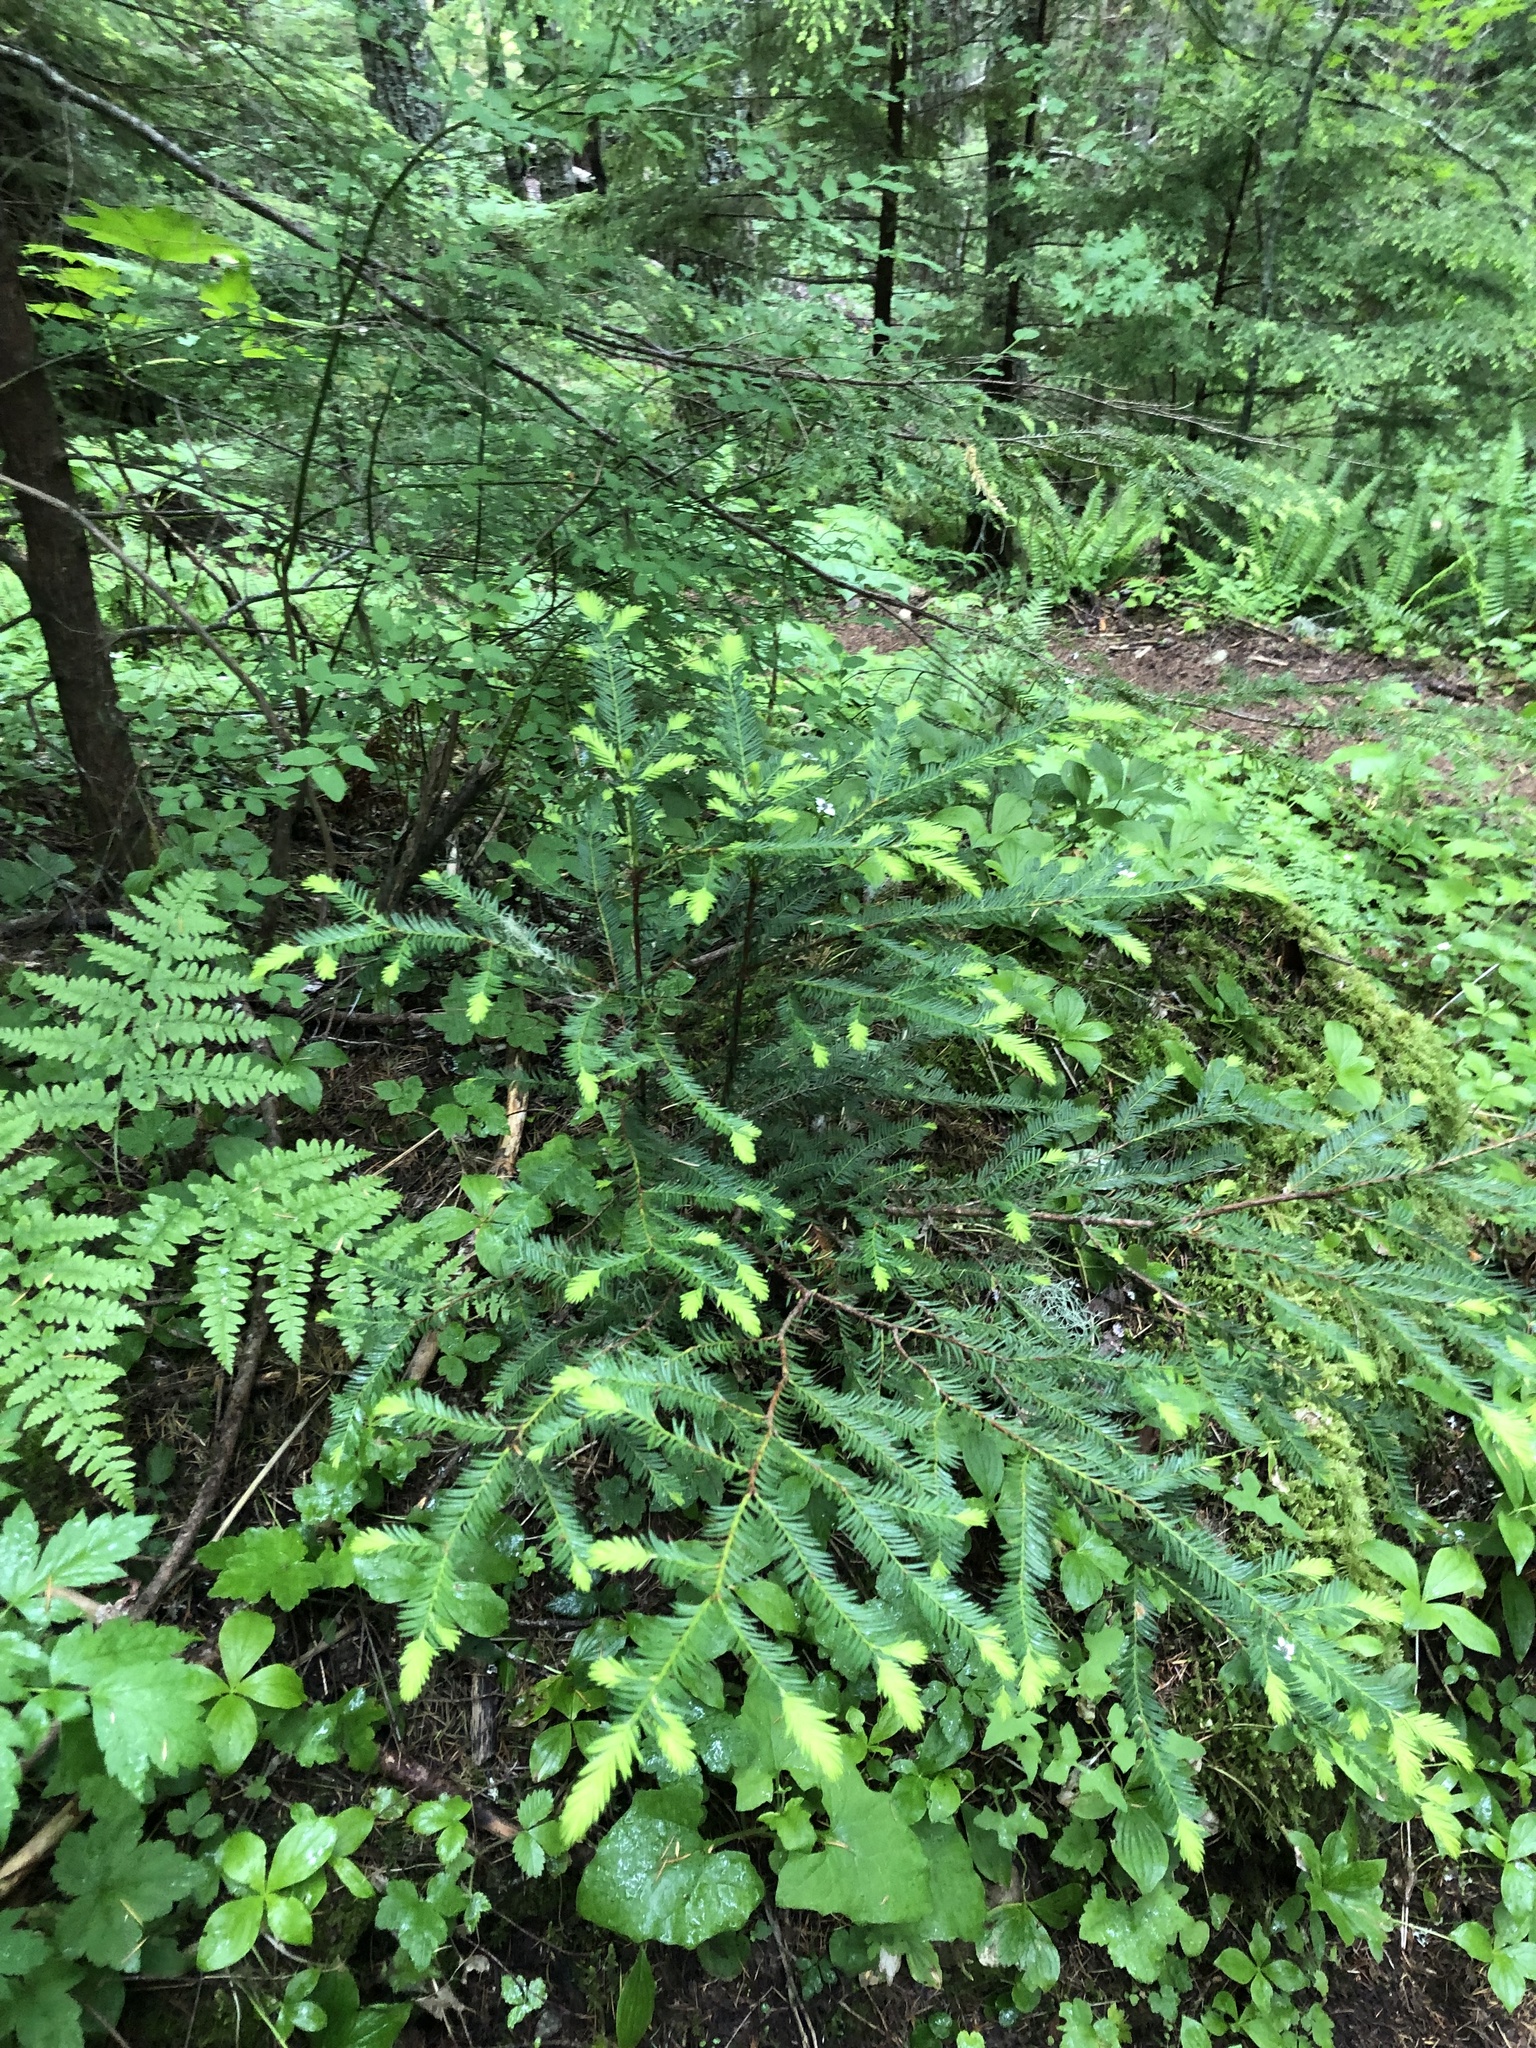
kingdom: Plantae
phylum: Tracheophyta
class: Pinopsida
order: Pinales
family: Taxaceae
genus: Taxus
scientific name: Taxus brevifolia
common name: Pacific yew
